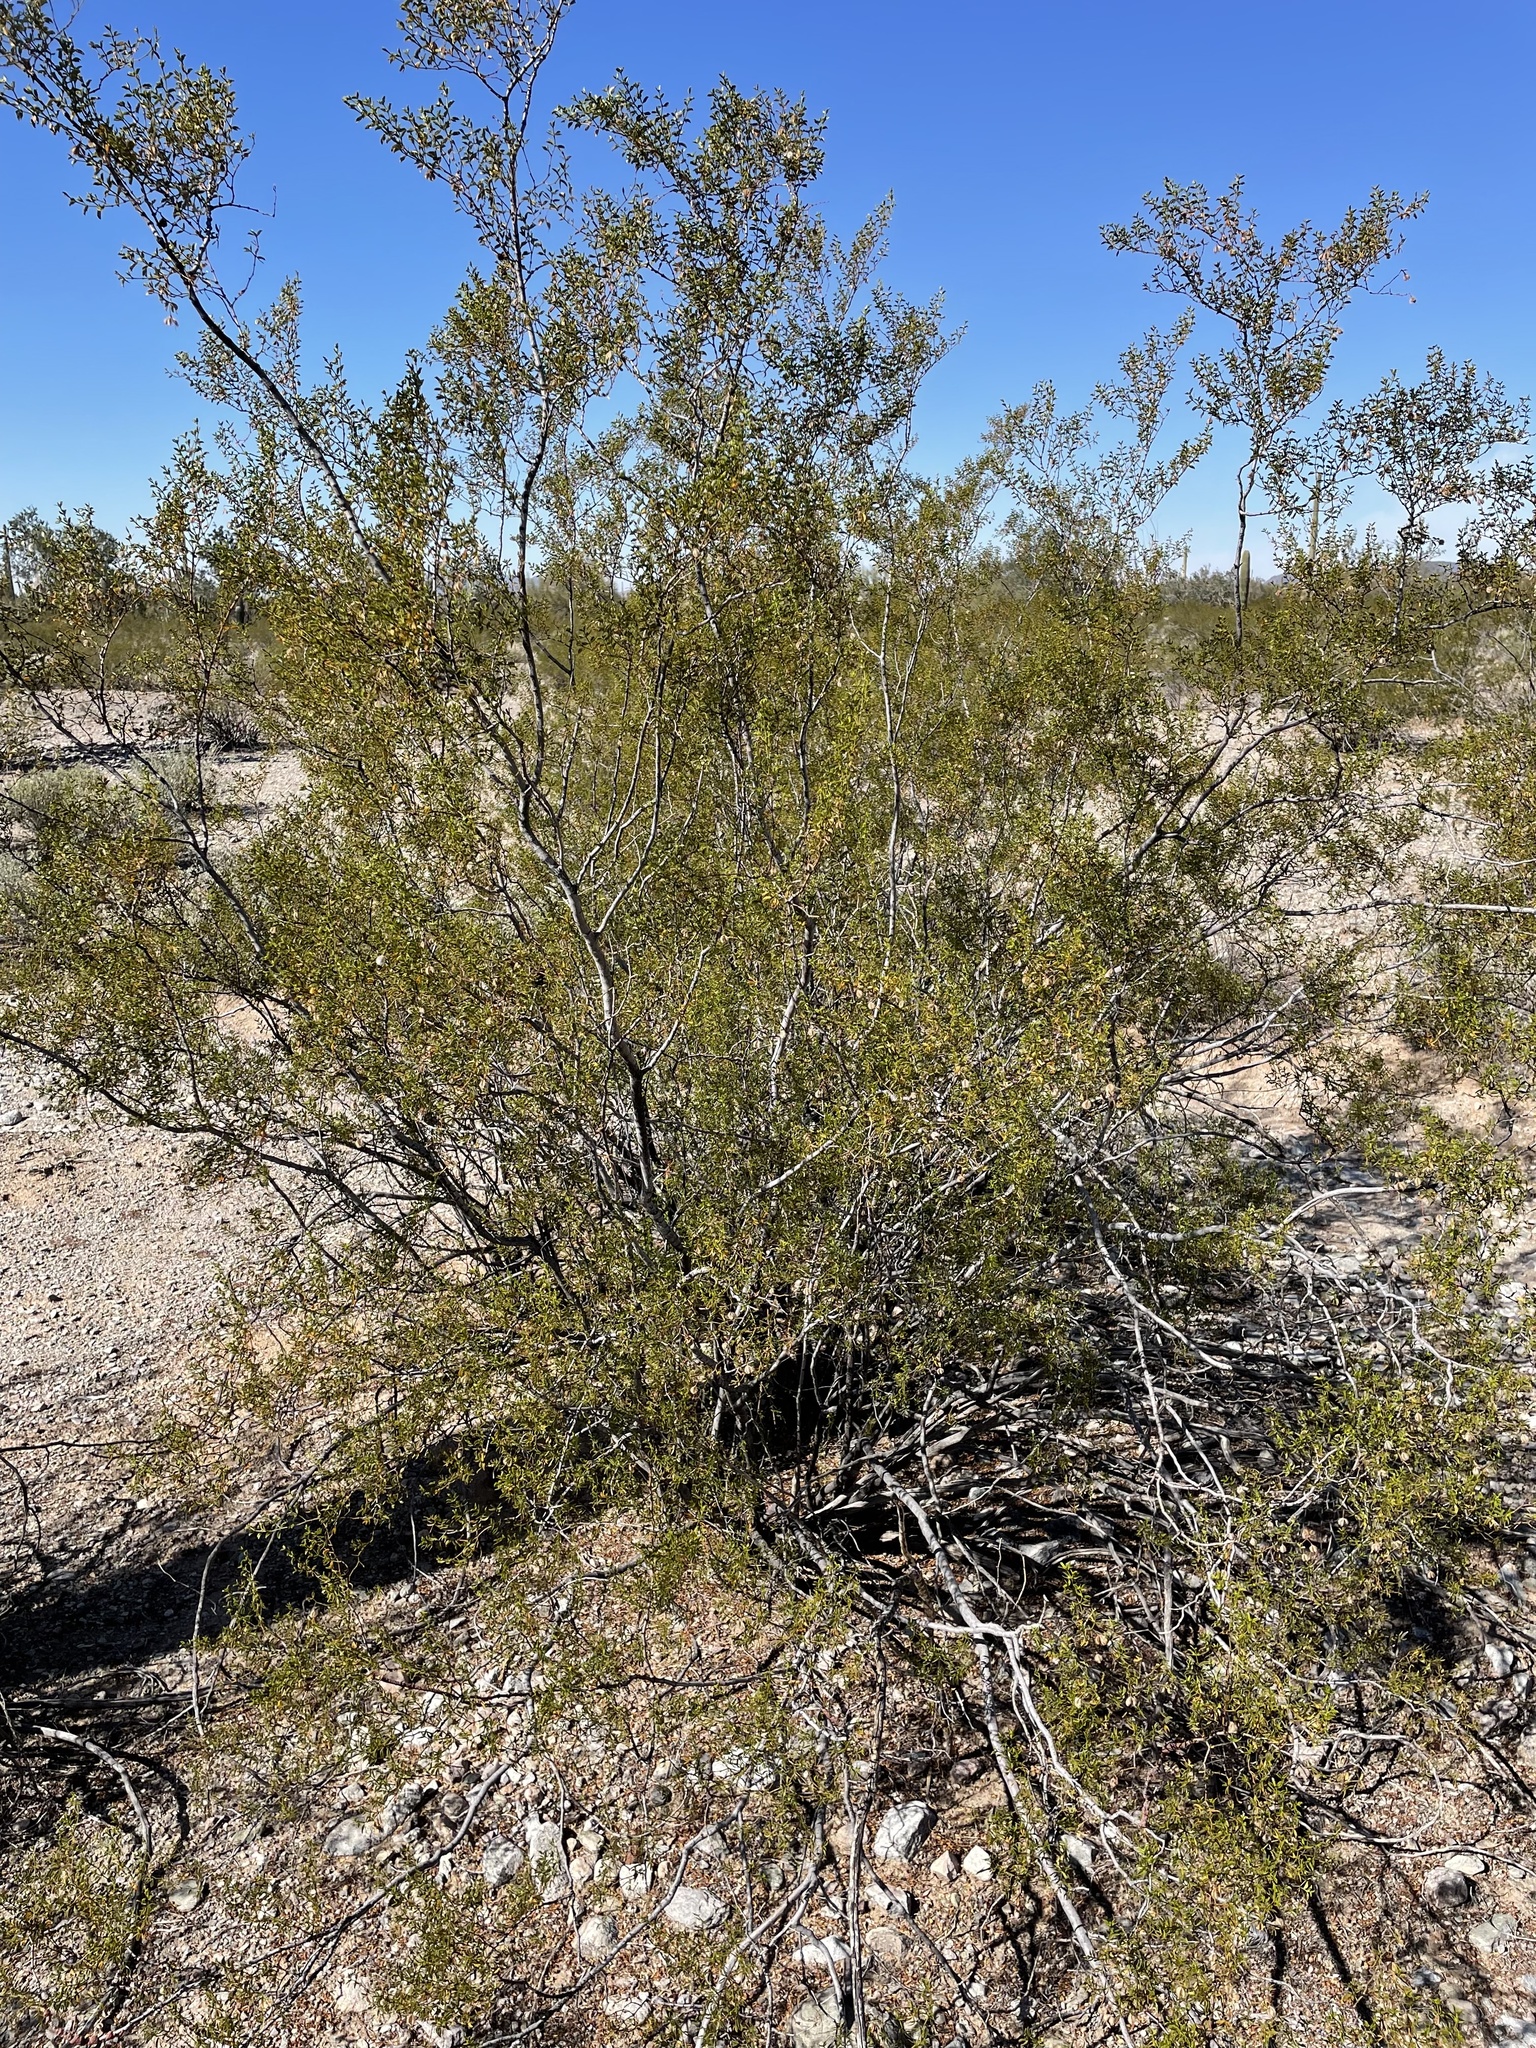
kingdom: Animalia
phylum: Arthropoda
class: Insecta
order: Diptera
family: Cecidomyiidae
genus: Asphondylia
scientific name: Asphondylia auripila
